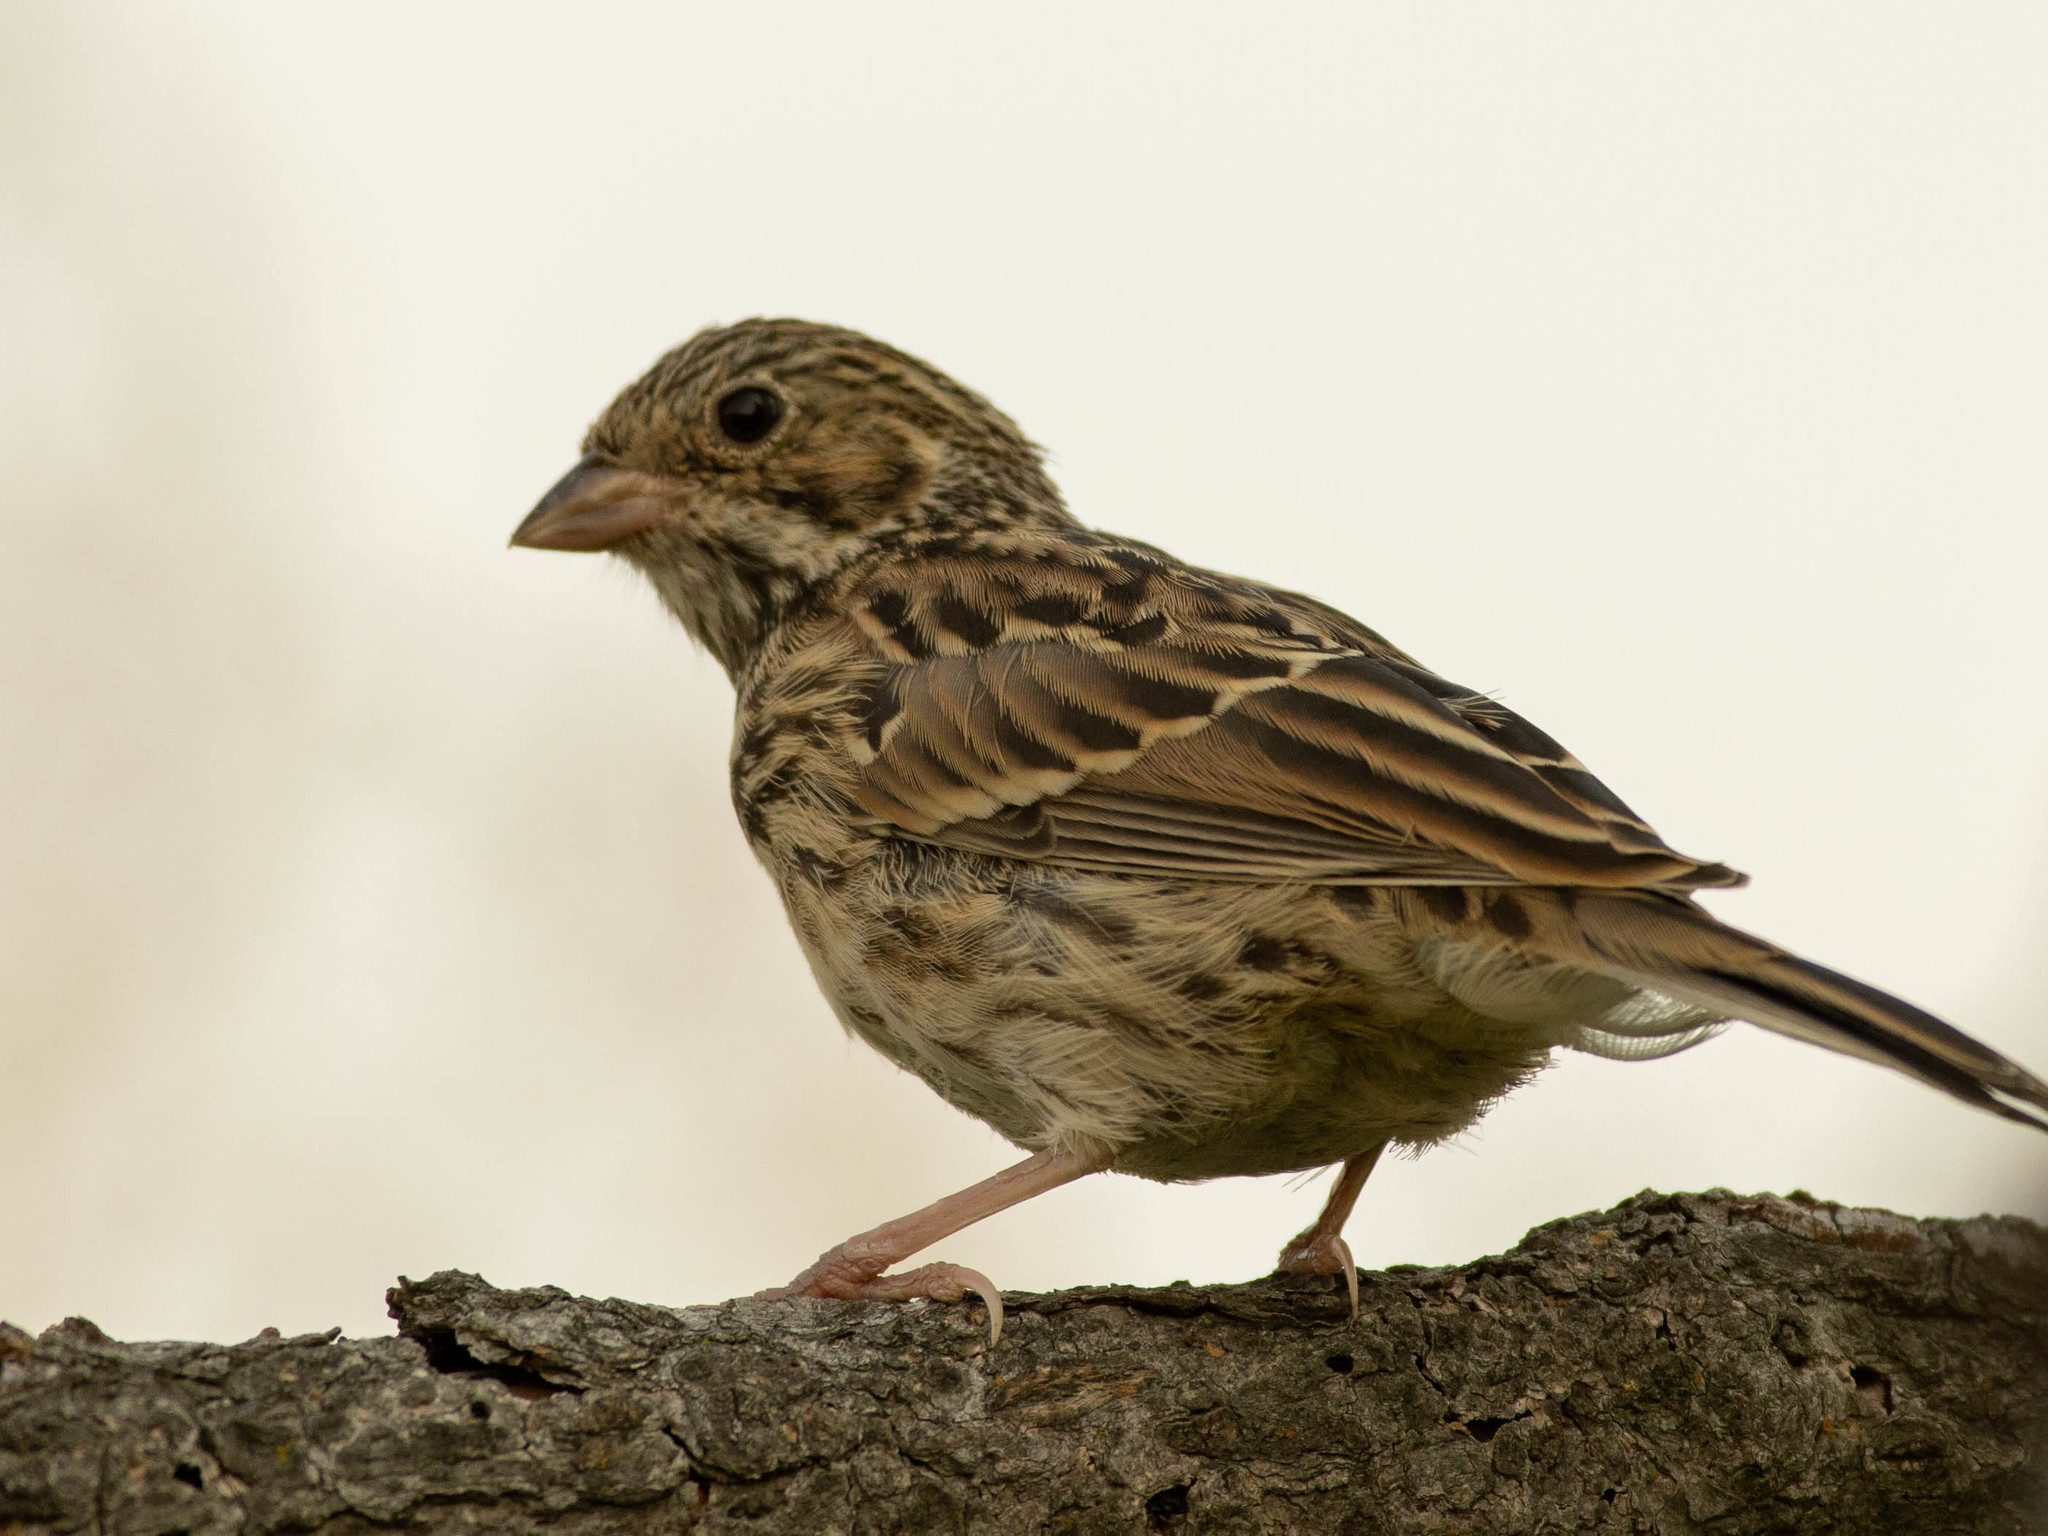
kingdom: Animalia
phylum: Chordata
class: Aves
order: Passeriformes
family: Passerellidae
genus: Pooecetes
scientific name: Pooecetes gramineus
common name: Vesper sparrow
